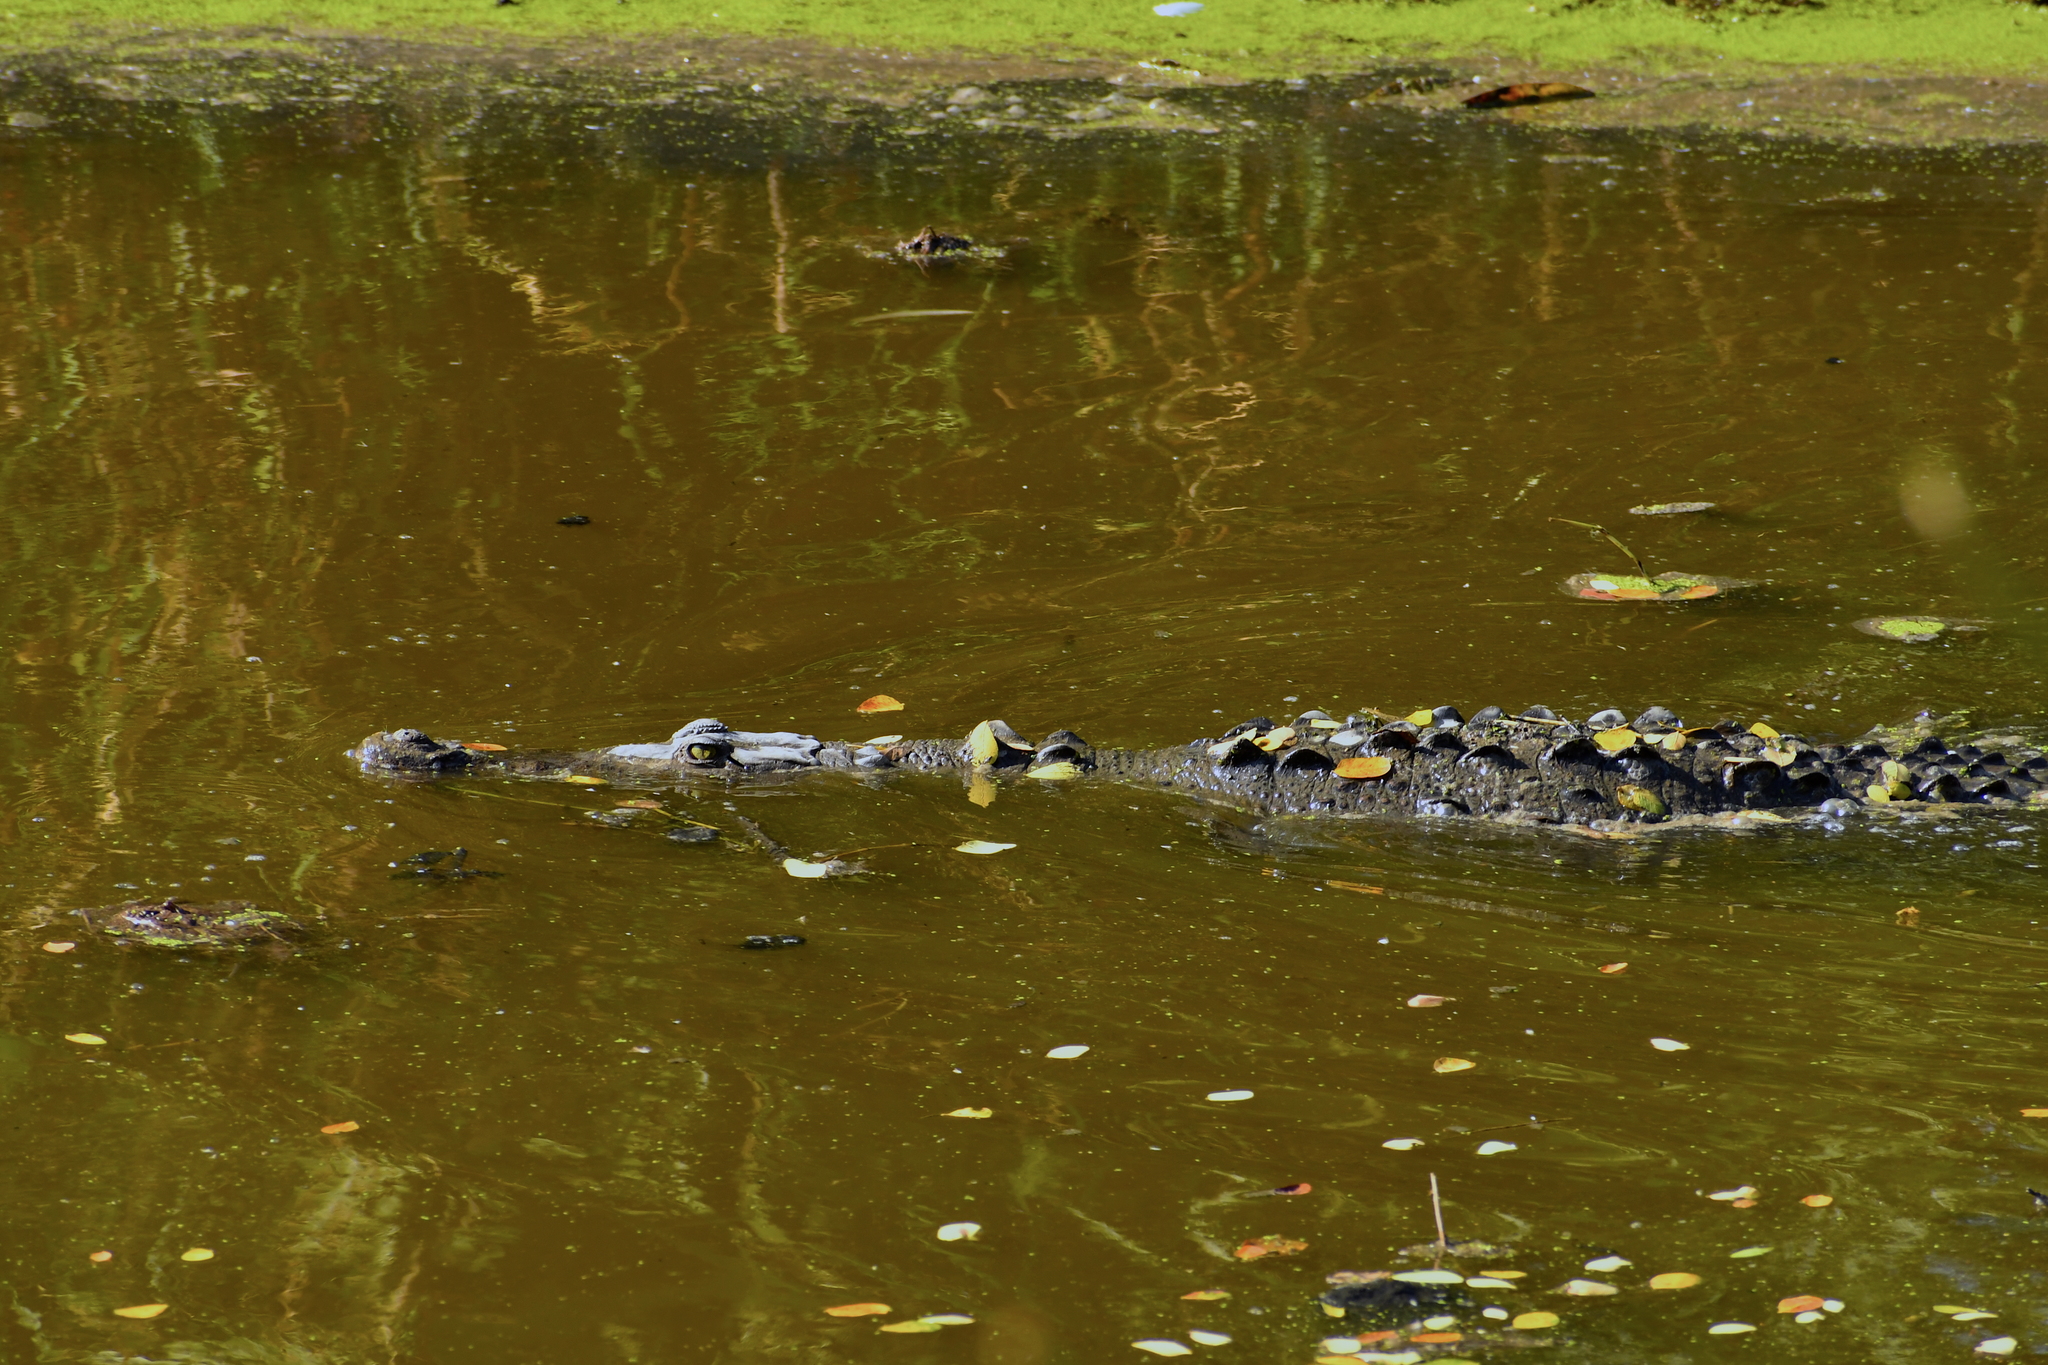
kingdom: Animalia
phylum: Chordata
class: Crocodylia
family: Crocodylidae
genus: Crocodylus
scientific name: Crocodylus acutus
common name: American crocodile
